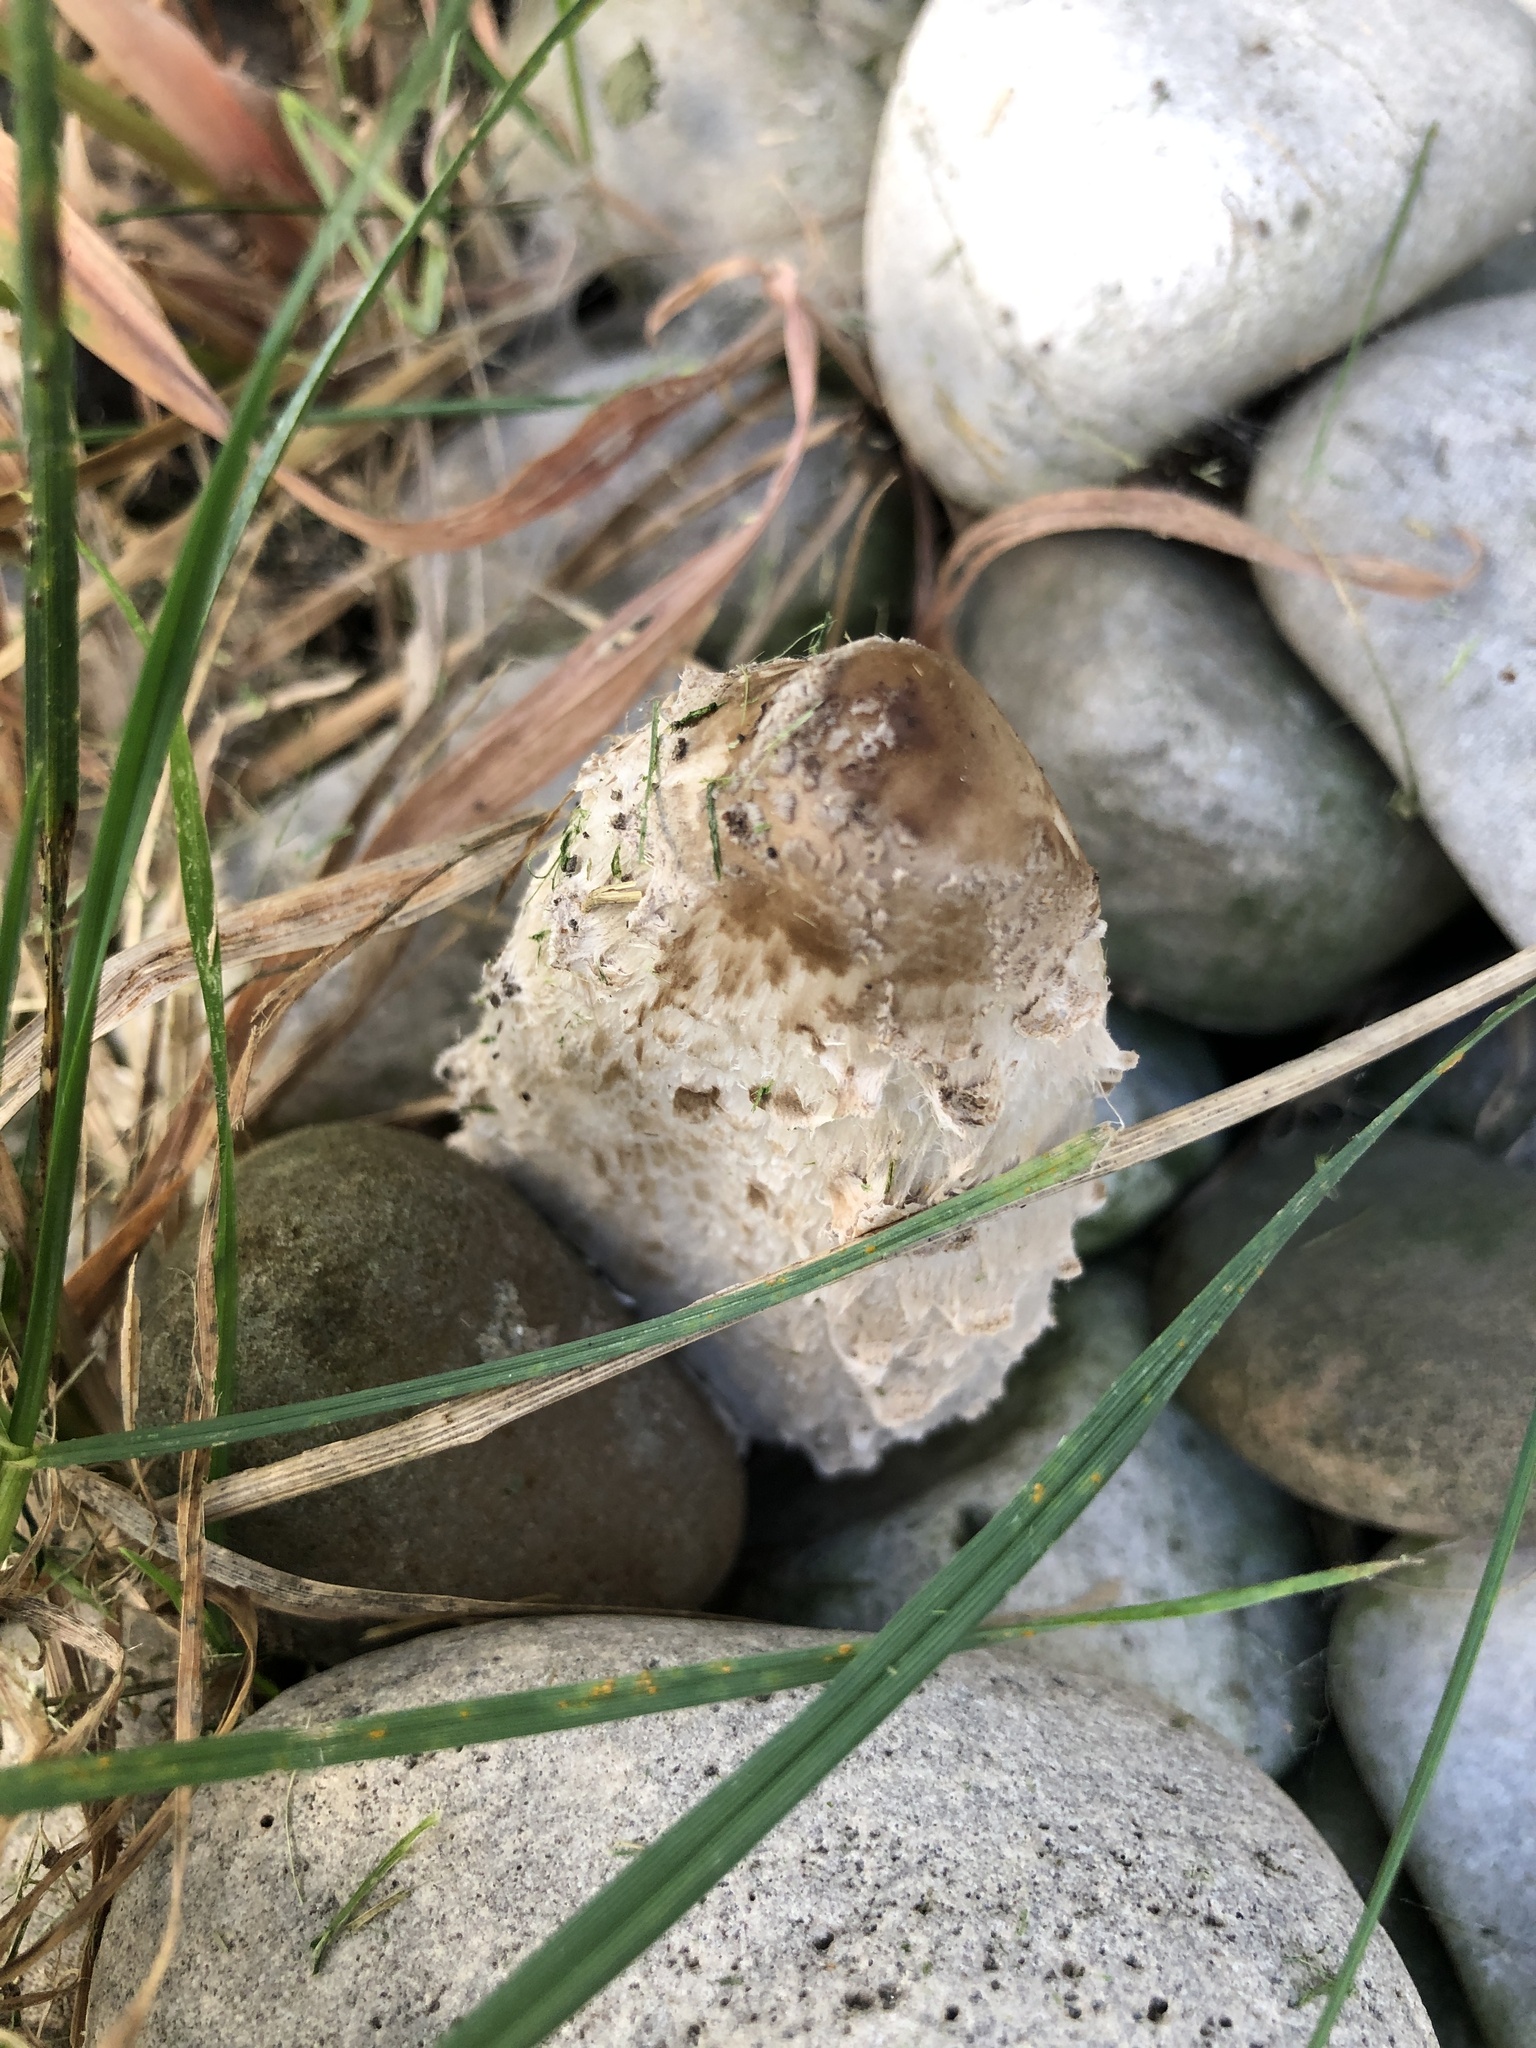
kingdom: Fungi
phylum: Basidiomycota
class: Agaricomycetes
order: Agaricales
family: Agaricaceae
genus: Coprinus
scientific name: Coprinus comatus
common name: Lawyer's wig
